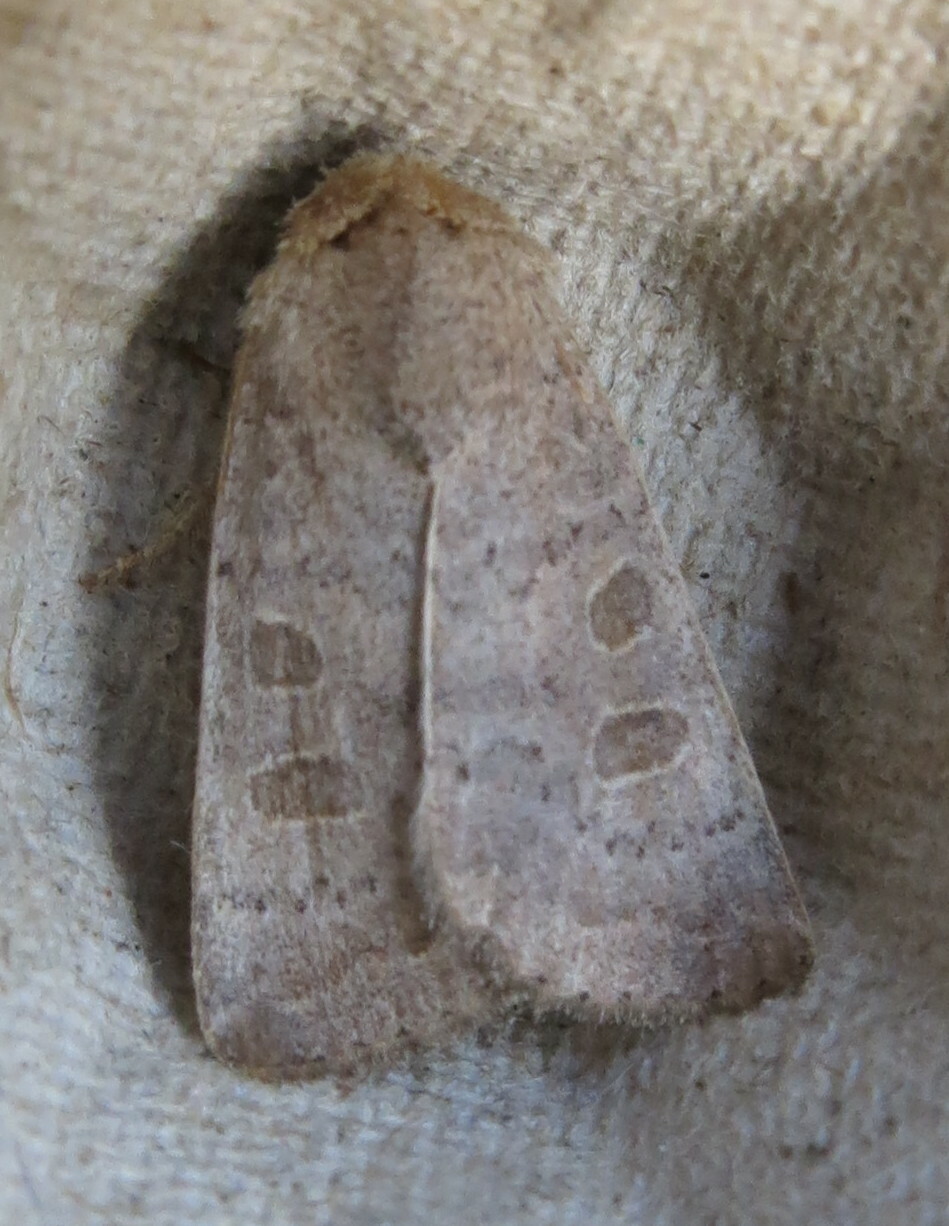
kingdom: Animalia
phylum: Arthropoda
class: Insecta
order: Lepidoptera
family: Noctuidae
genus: Hoplodrina
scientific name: Hoplodrina ambigua
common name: Vine's rustic
